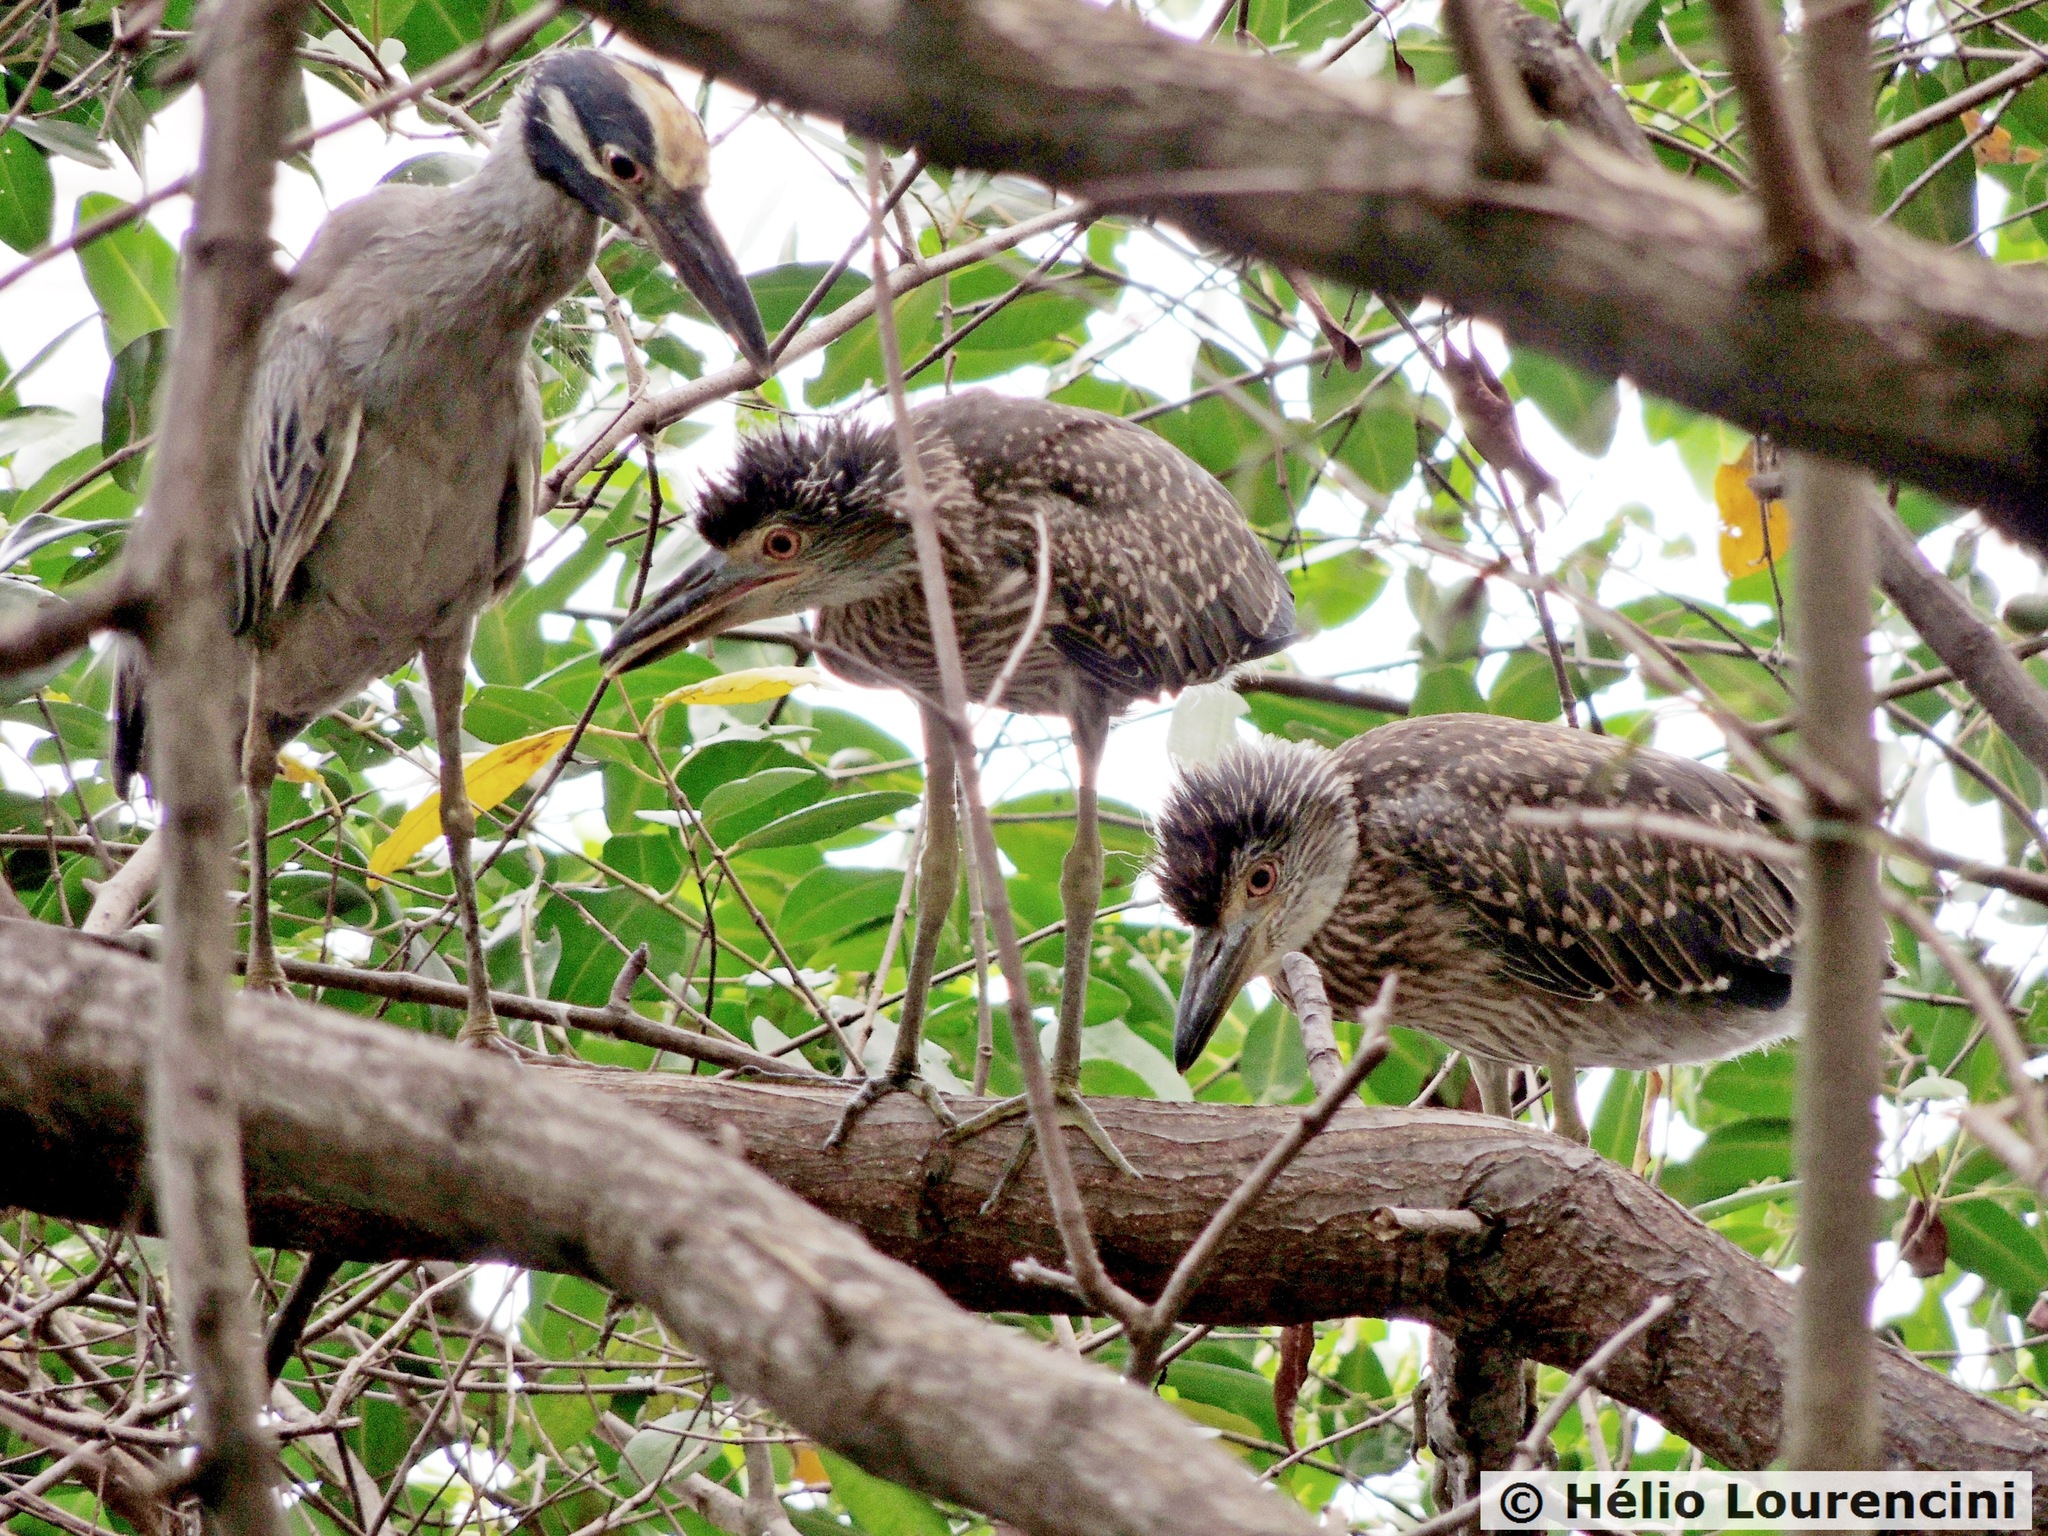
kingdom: Animalia
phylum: Chordata
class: Aves
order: Pelecaniformes
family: Ardeidae
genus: Nyctanassa
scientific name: Nyctanassa violacea
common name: Yellow-crowned night heron
